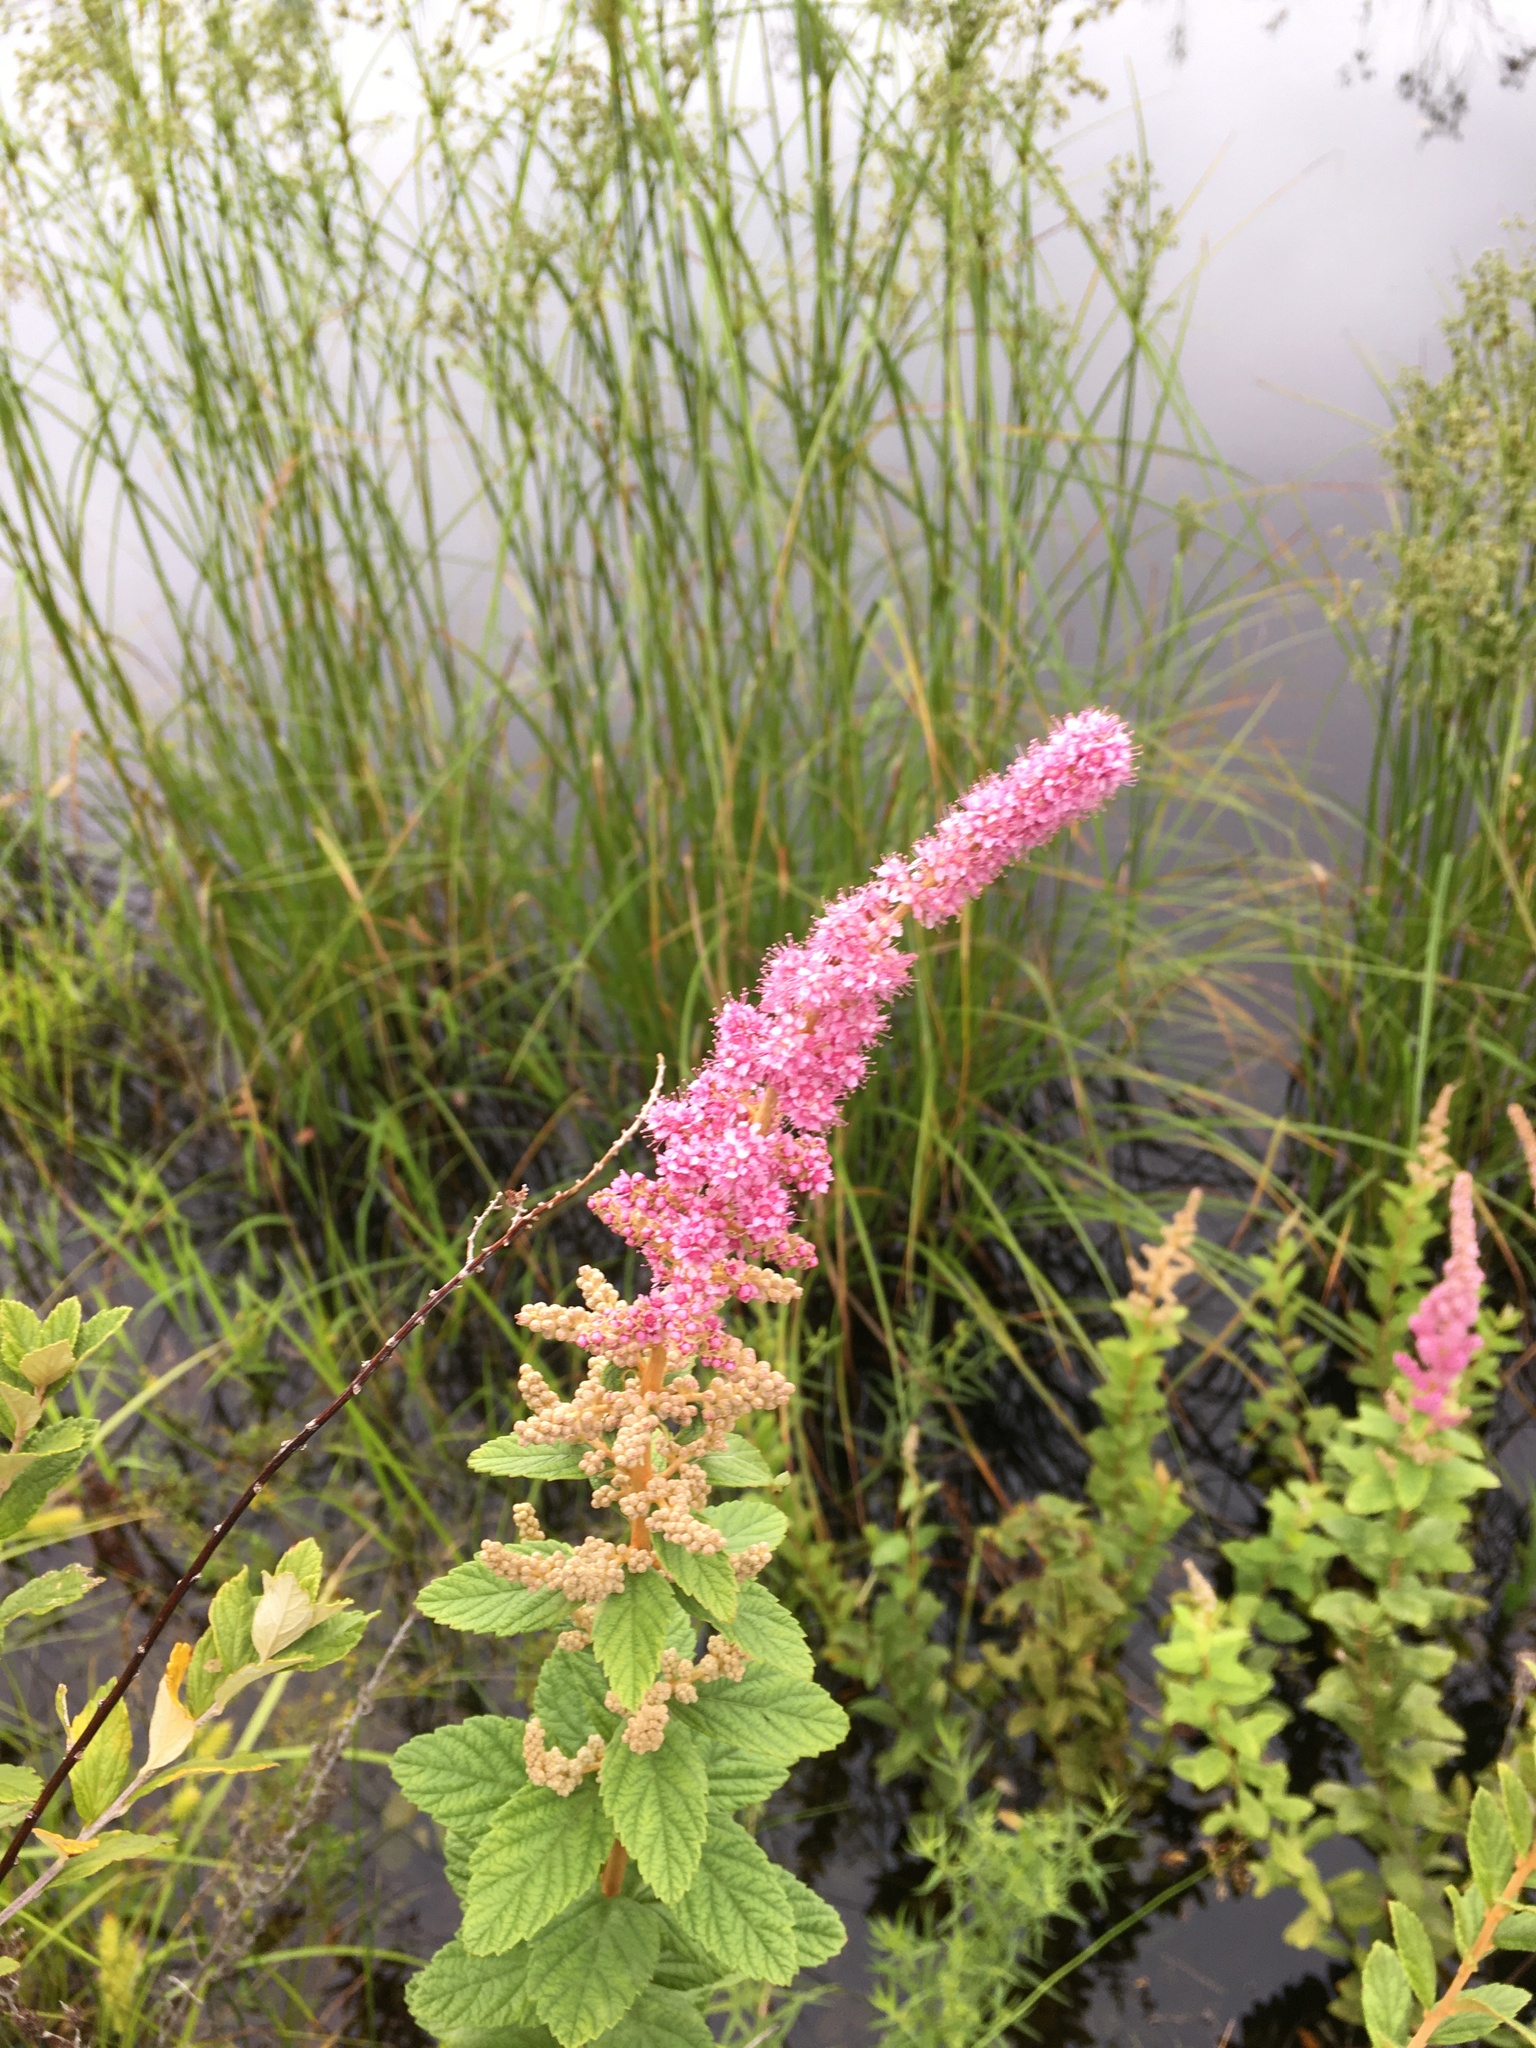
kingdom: Plantae
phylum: Tracheophyta
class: Magnoliopsida
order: Rosales
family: Rosaceae
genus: Spiraea
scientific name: Spiraea tomentosa
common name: Hardhack
